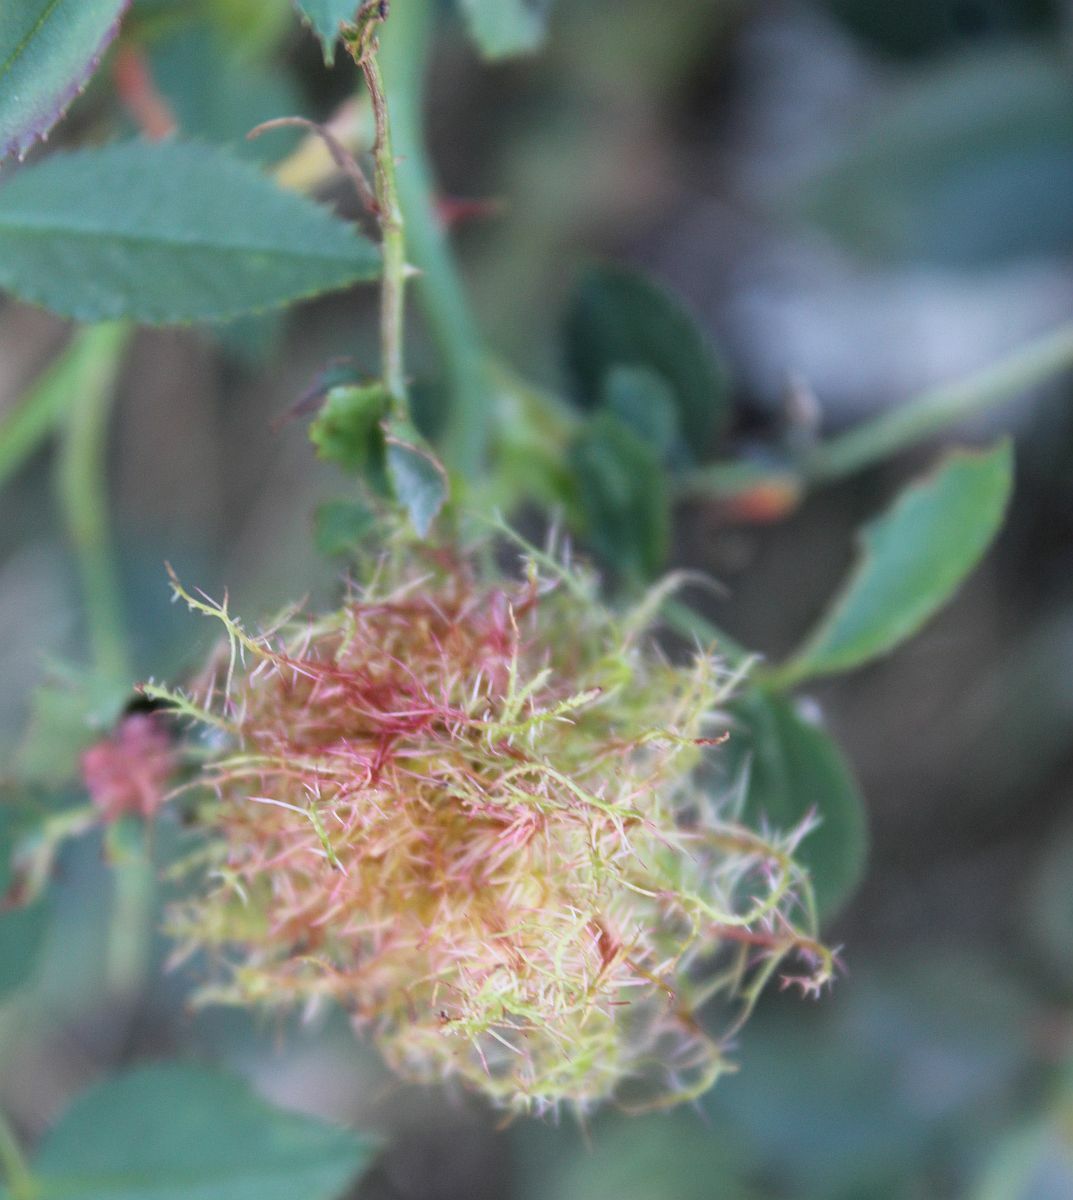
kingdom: Animalia
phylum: Arthropoda
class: Insecta
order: Hymenoptera
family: Cynipidae
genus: Diplolepis
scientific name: Diplolepis rosae
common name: Bedeguar gall
